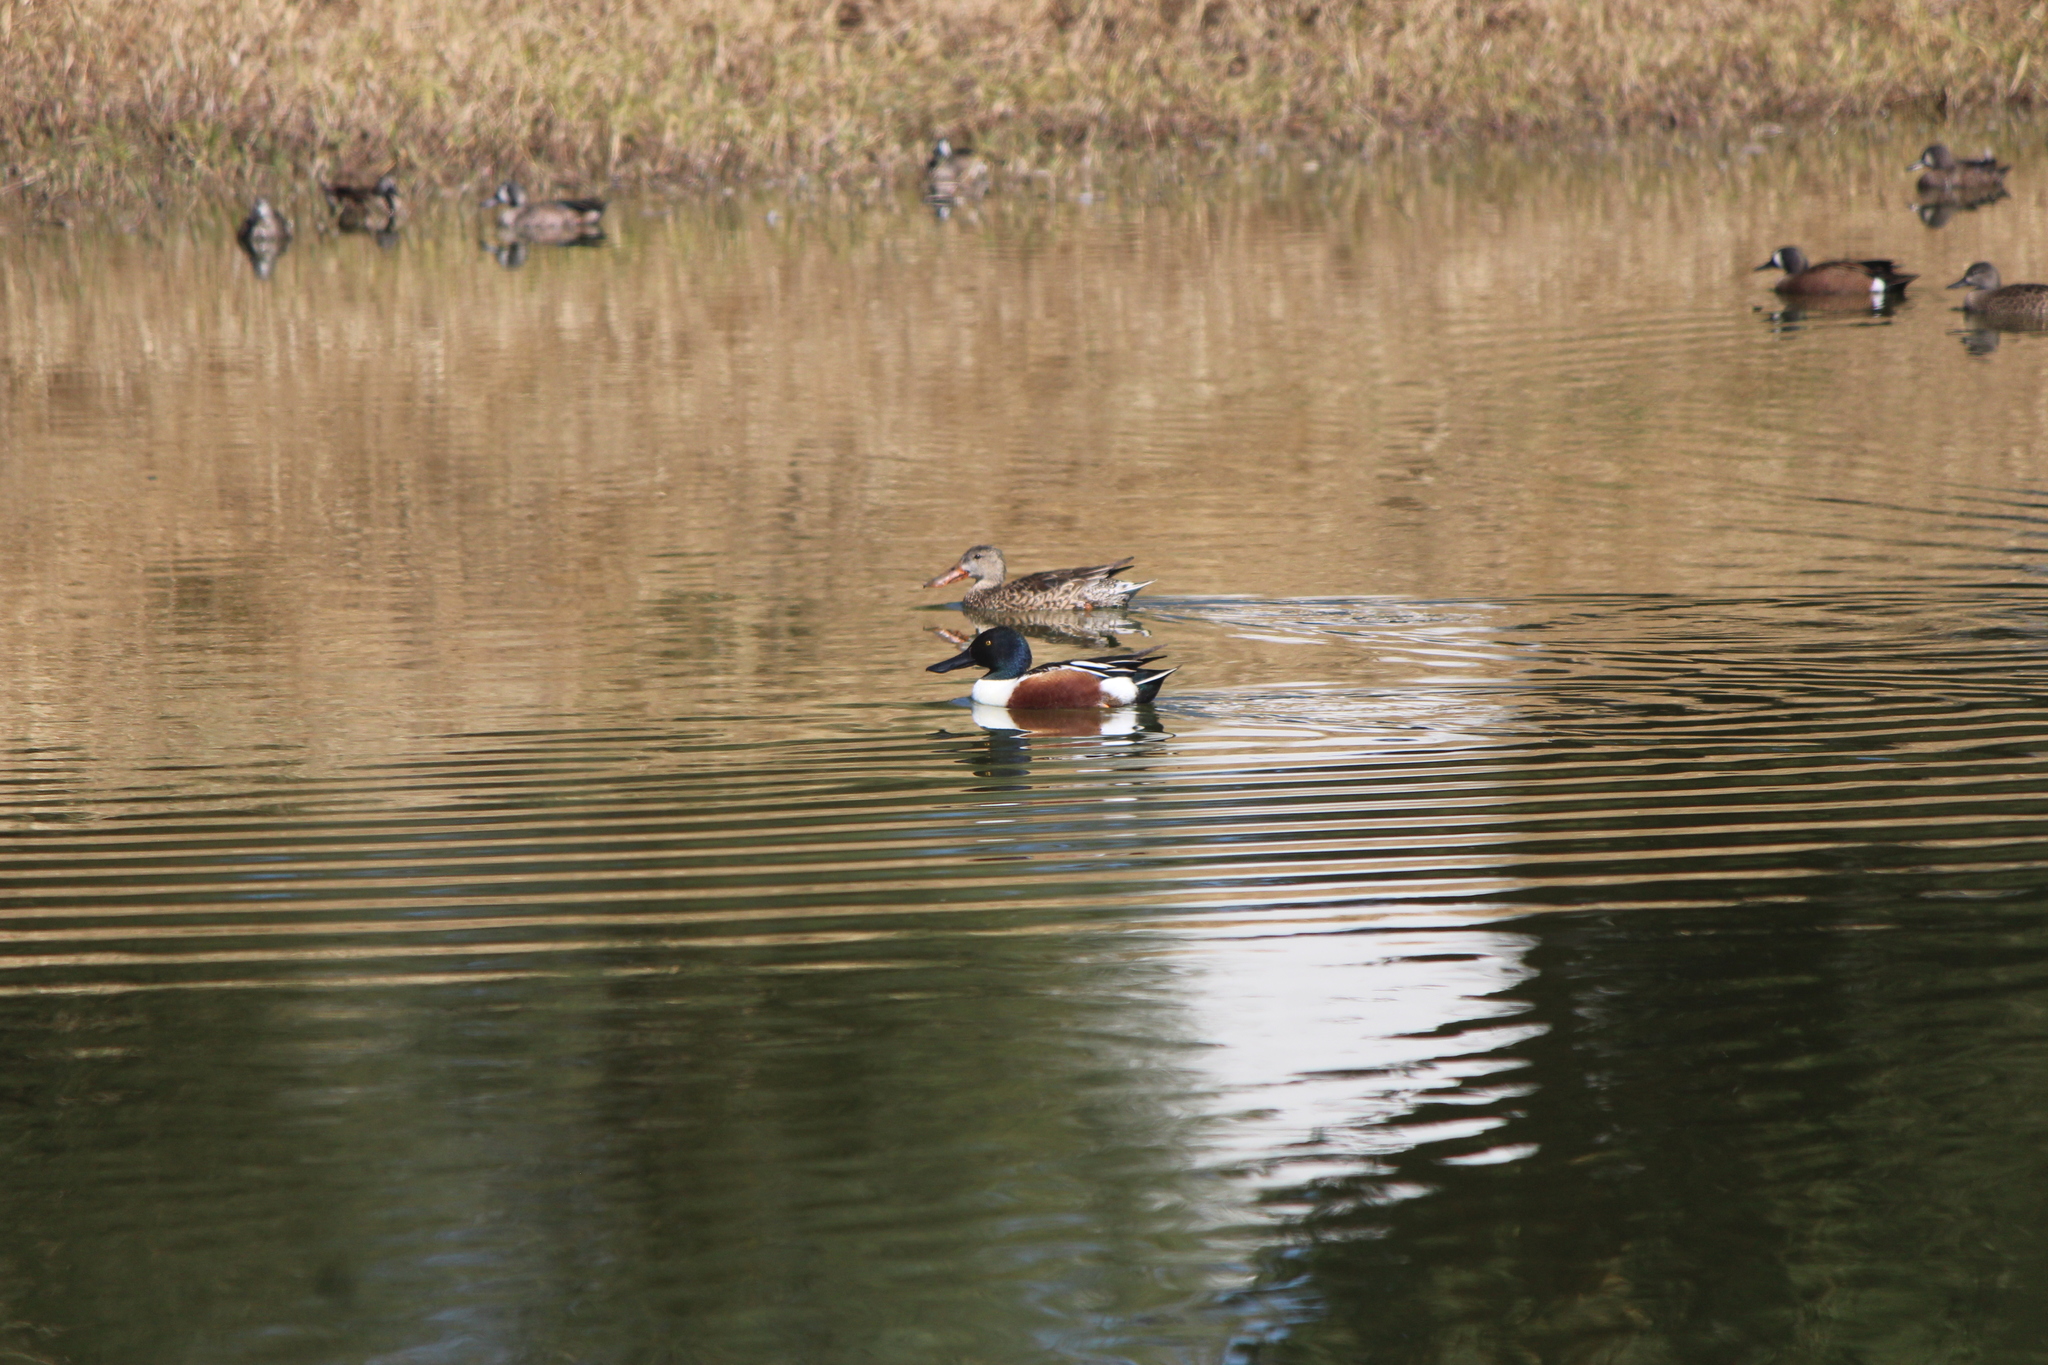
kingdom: Animalia
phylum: Chordata
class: Aves
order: Anseriformes
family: Anatidae
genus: Spatula
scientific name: Spatula clypeata
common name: Northern shoveler
